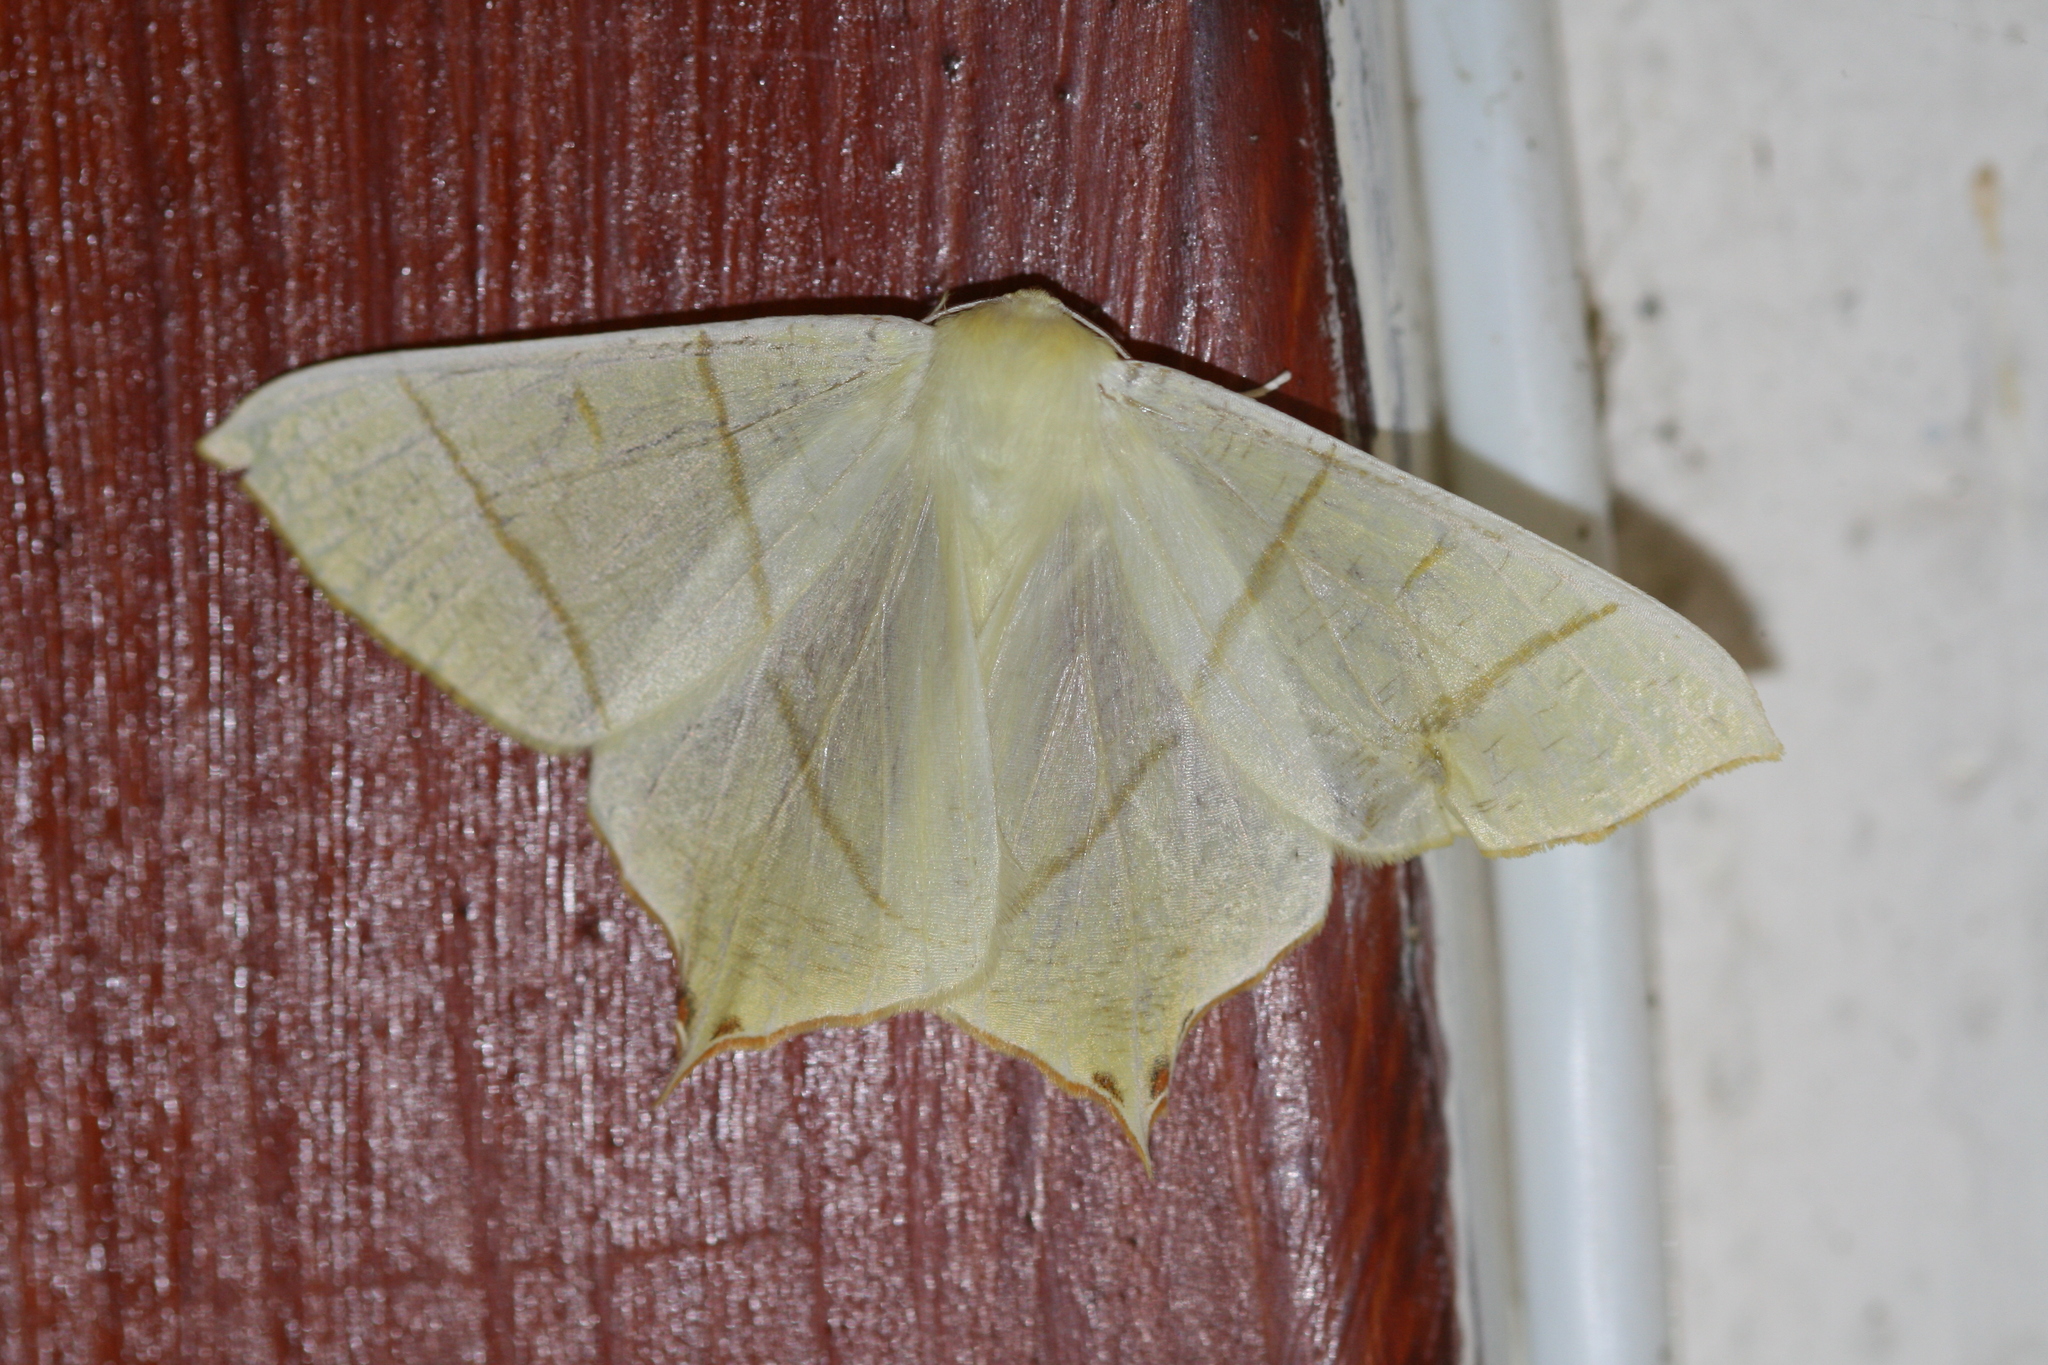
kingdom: Animalia
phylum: Arthropoda
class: Insecta
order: Lepidoptera
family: Geometridae
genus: Ourapteryx
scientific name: Ourapteryx sambucaria
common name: Swallow-tailed moth
